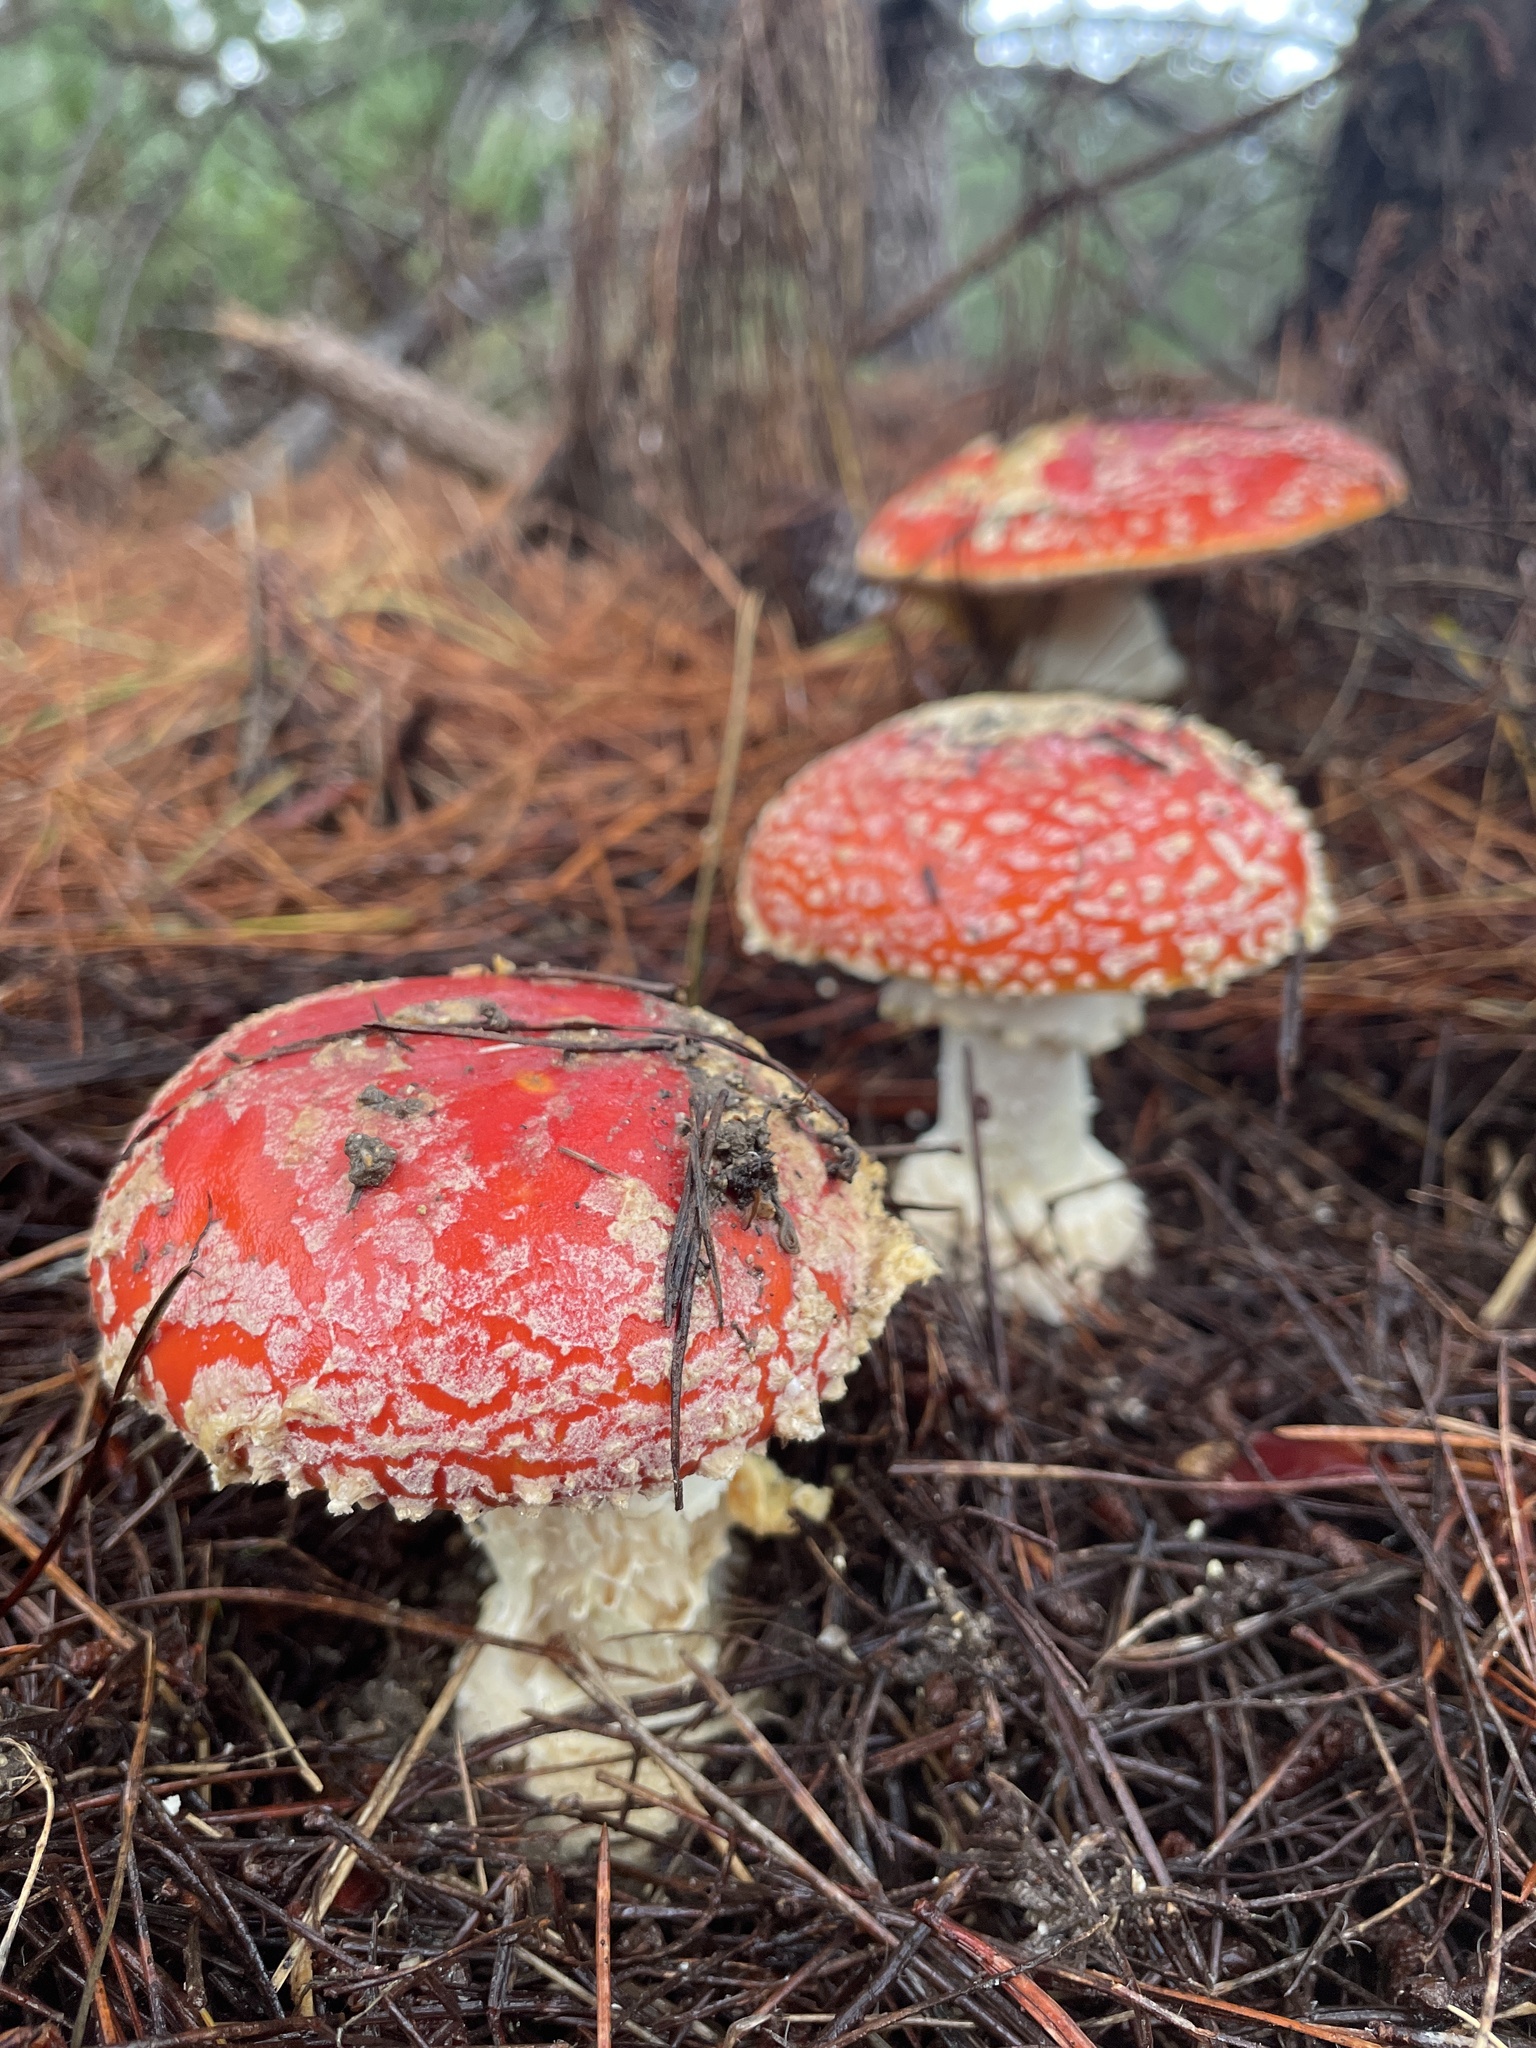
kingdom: Fungi
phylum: Basidiomycota
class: Agaricomycetes
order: Agaricales
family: Amanitaceae
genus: Amanita
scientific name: Amanita muscaria
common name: Fly agaric
